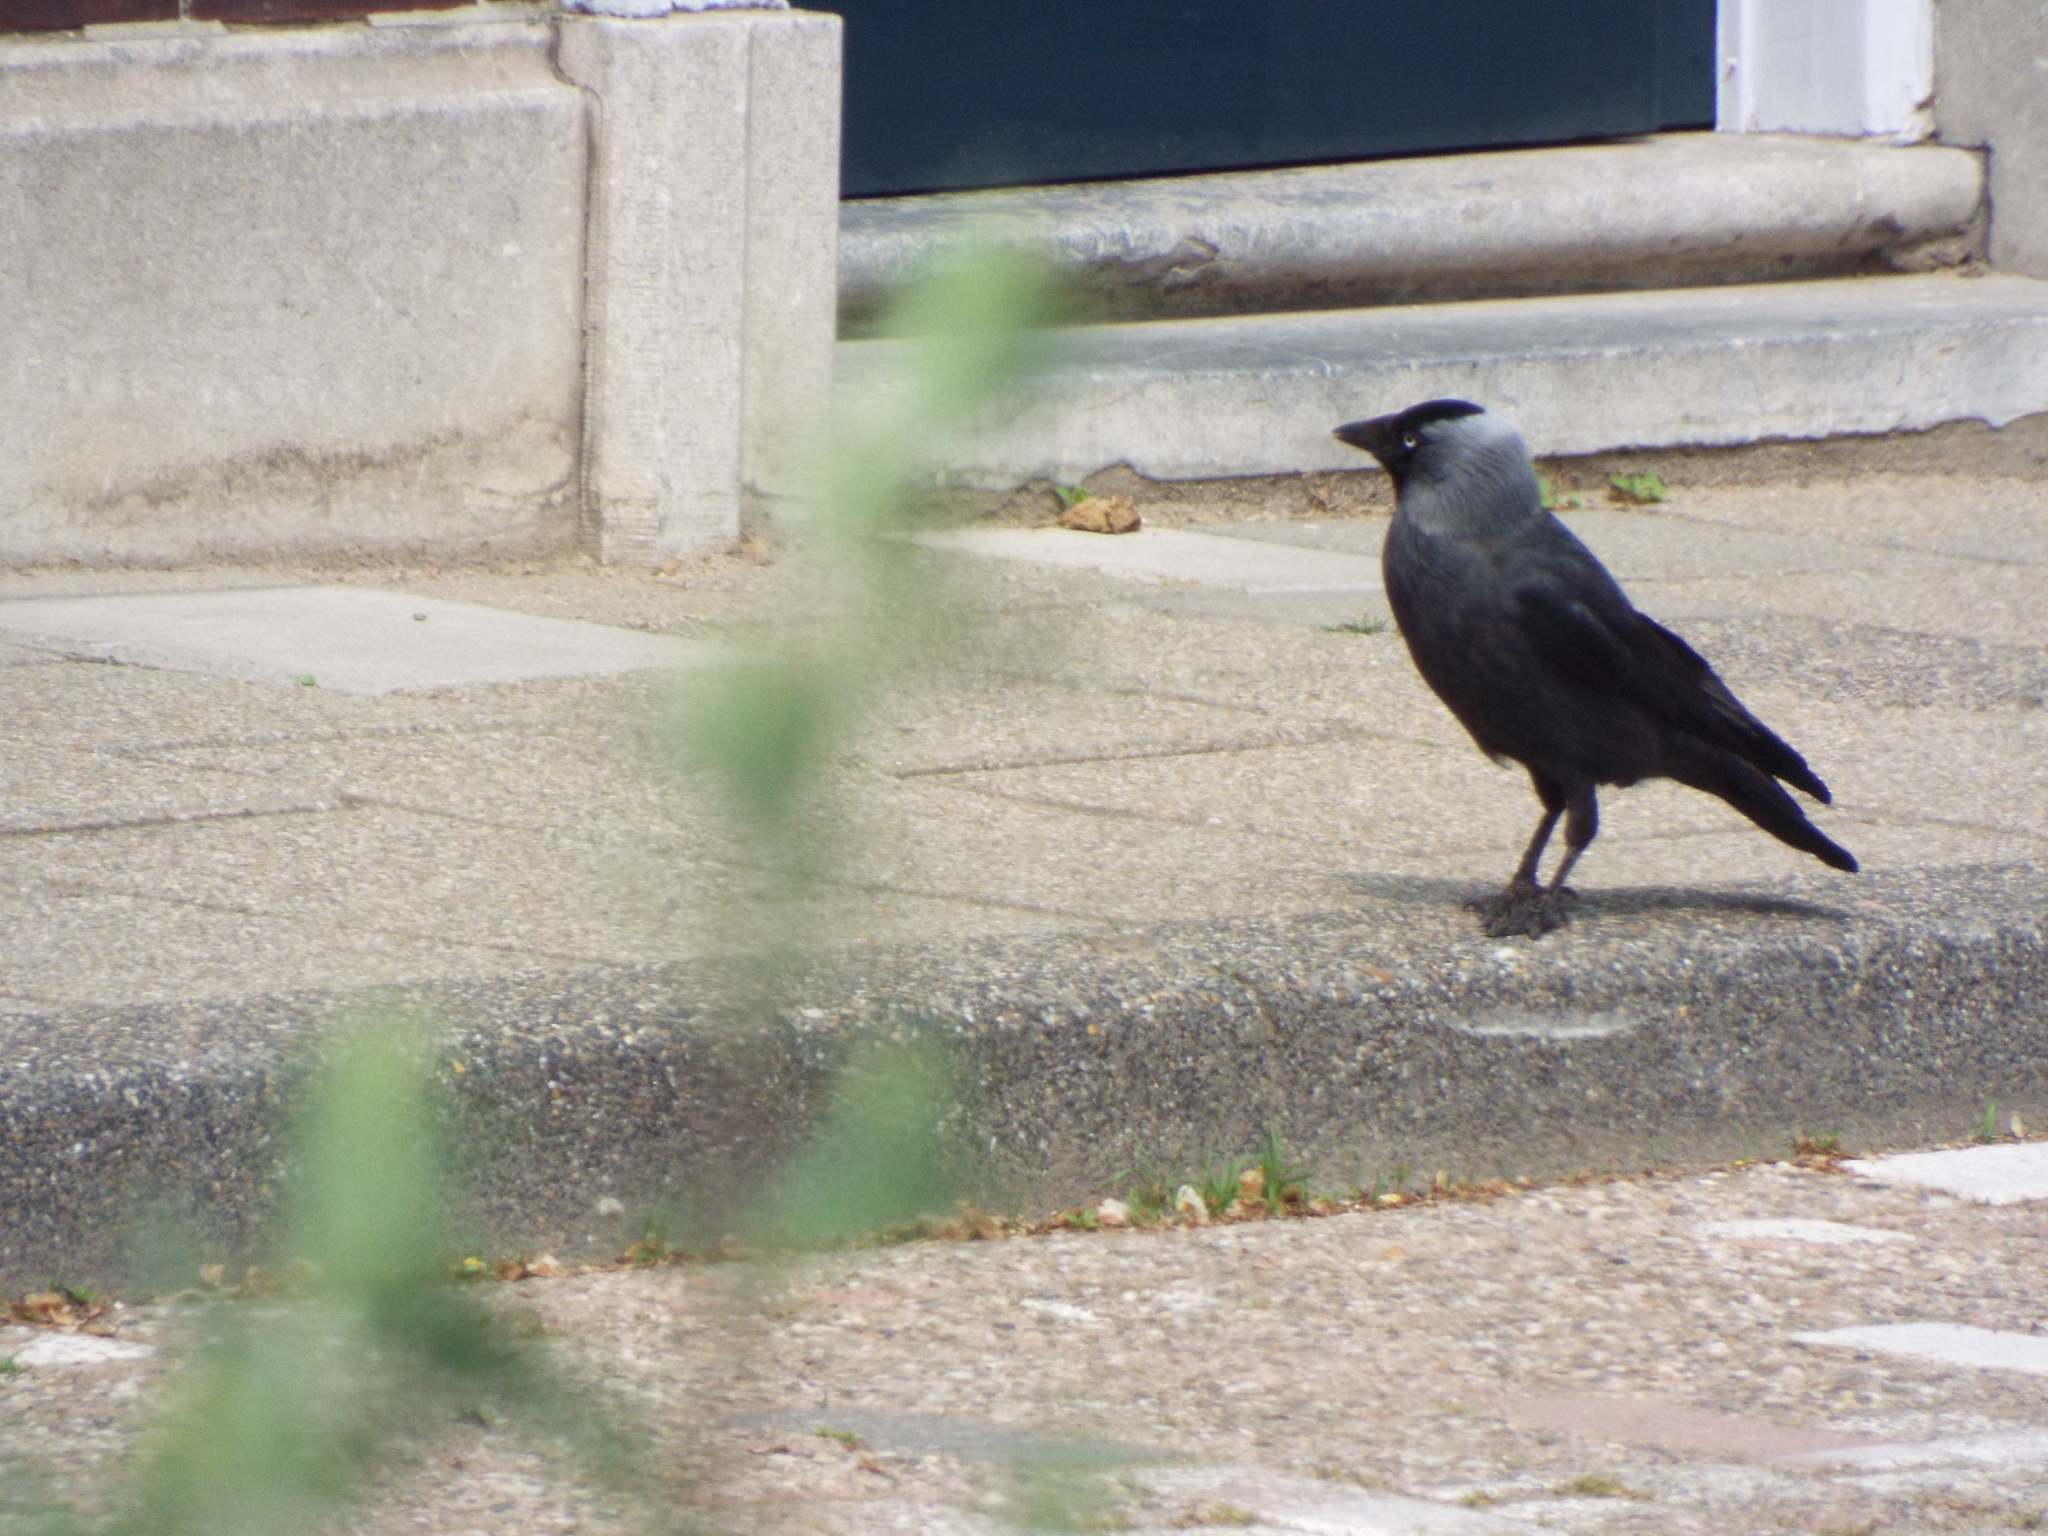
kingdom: Animalia
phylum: Chordata
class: Aves
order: Passeriformes
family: Corvidae
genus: Coloeus
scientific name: Coloeus monedula
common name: Western jackdaw
